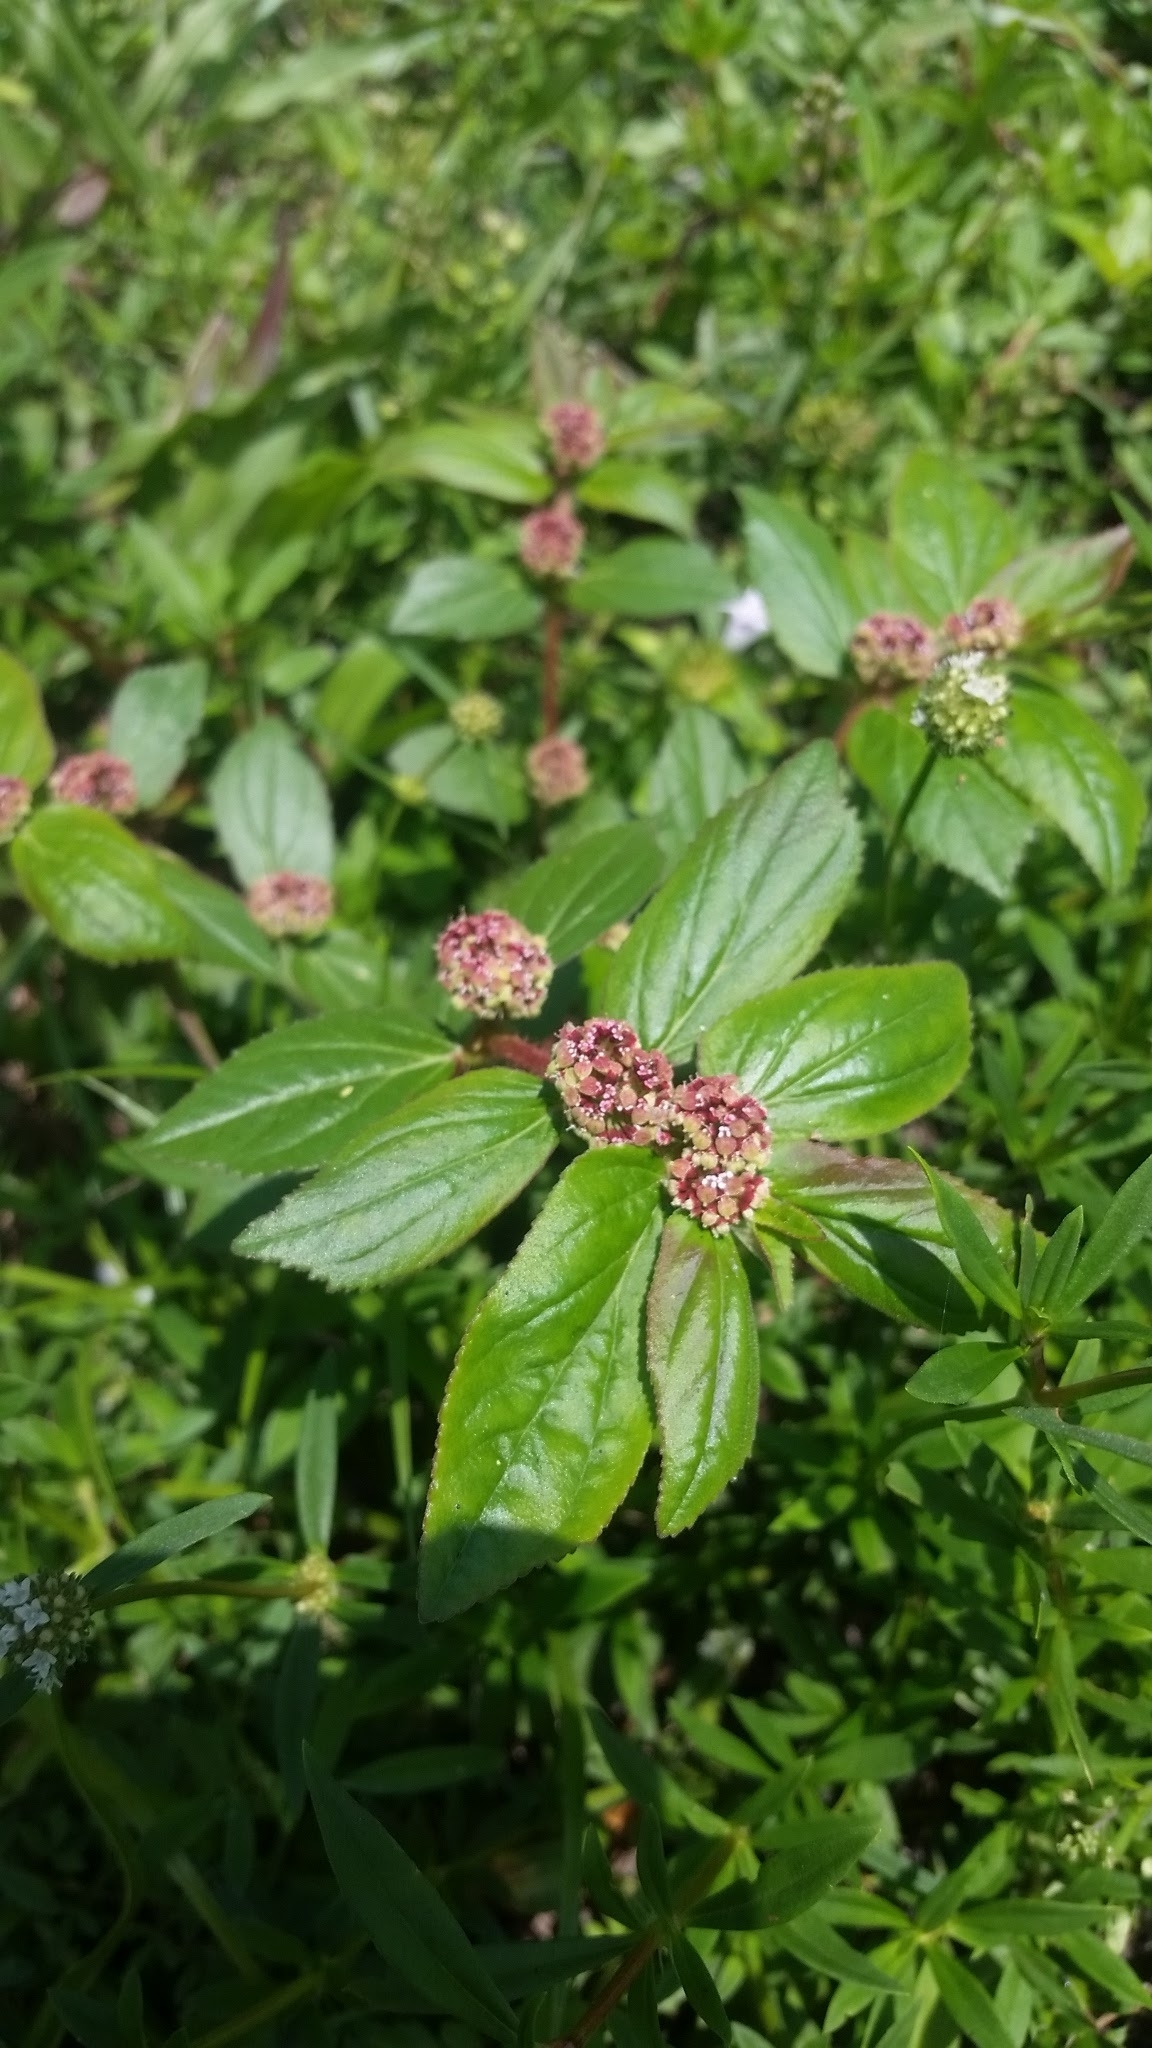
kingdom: Plantae
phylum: Tracheophyta
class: Magnoliopsida
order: Malpighiales
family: Euphorbiaceae
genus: Euphorbia
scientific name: Euphorbia hirta
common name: Pillpod sandmat
